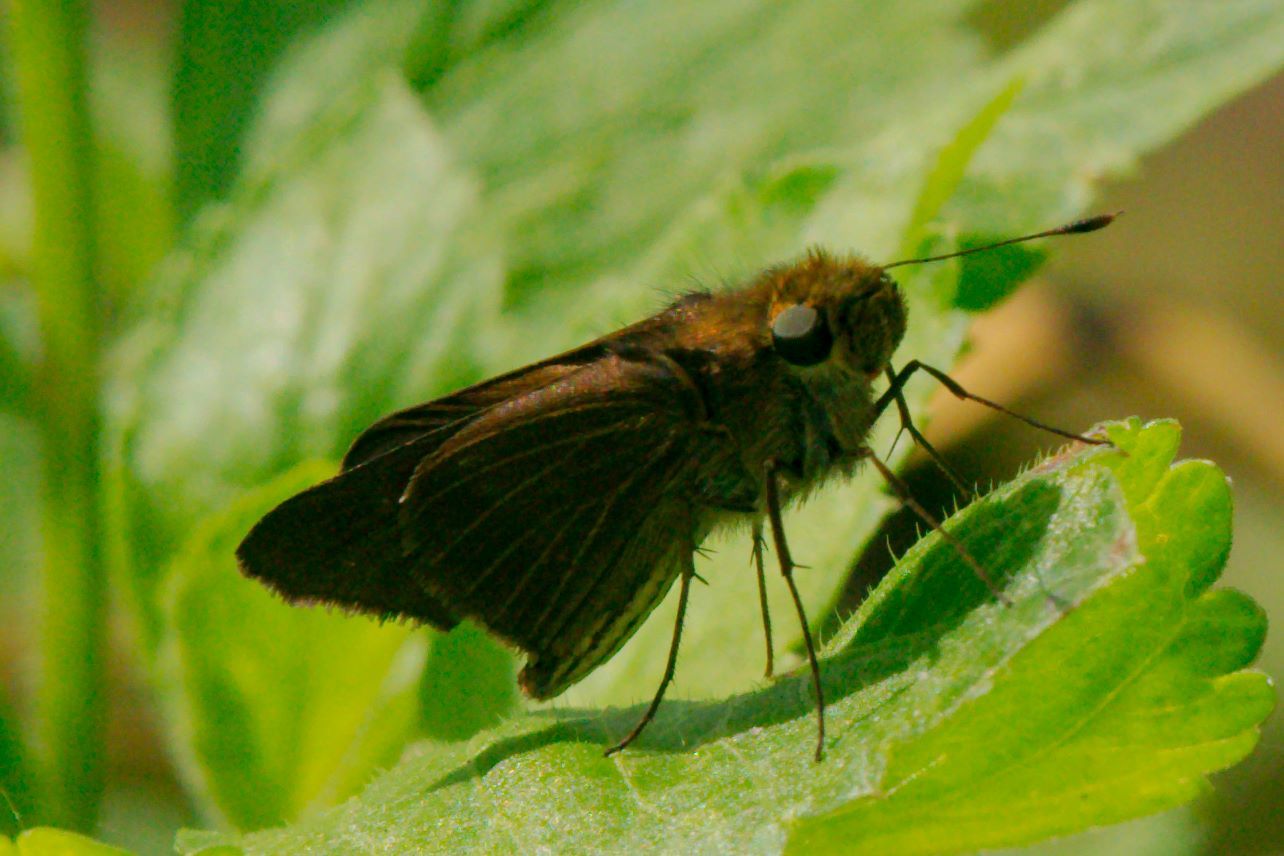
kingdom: Animalia
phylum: Arthropoda
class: Insecta
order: Lepidoptera
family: Hesperiidae
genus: Panoquina
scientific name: Panoquina ocola
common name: Ocola skipper
